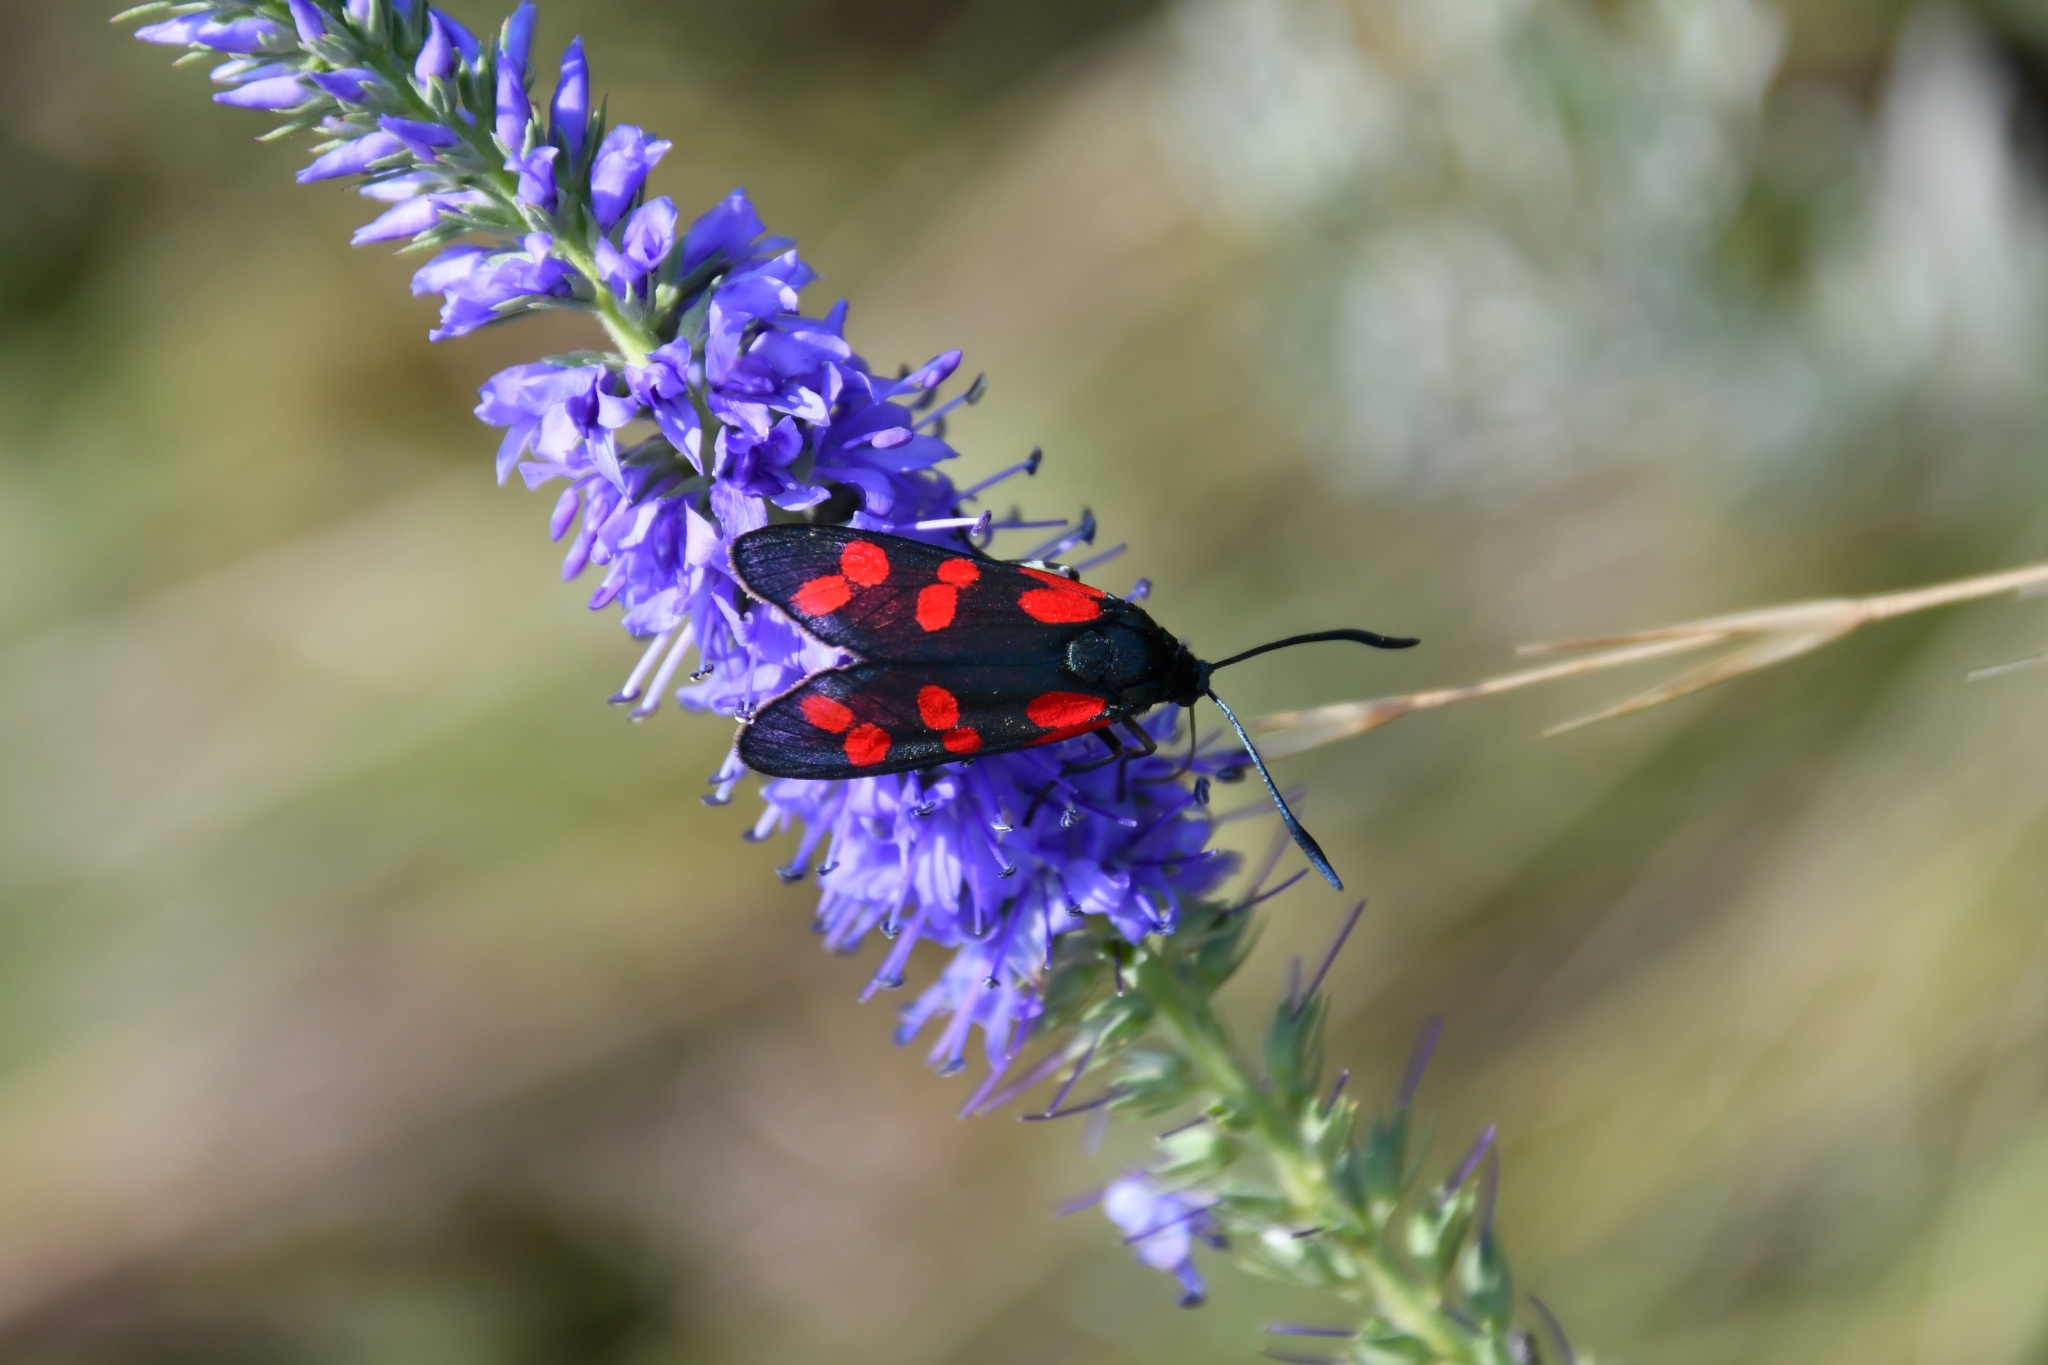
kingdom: Animalia
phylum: Arthropoda
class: Insecta
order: Lepidoptera
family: Zygaenidae
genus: Zygaena
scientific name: Zygaena filipendulae
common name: Six-spot burnet
